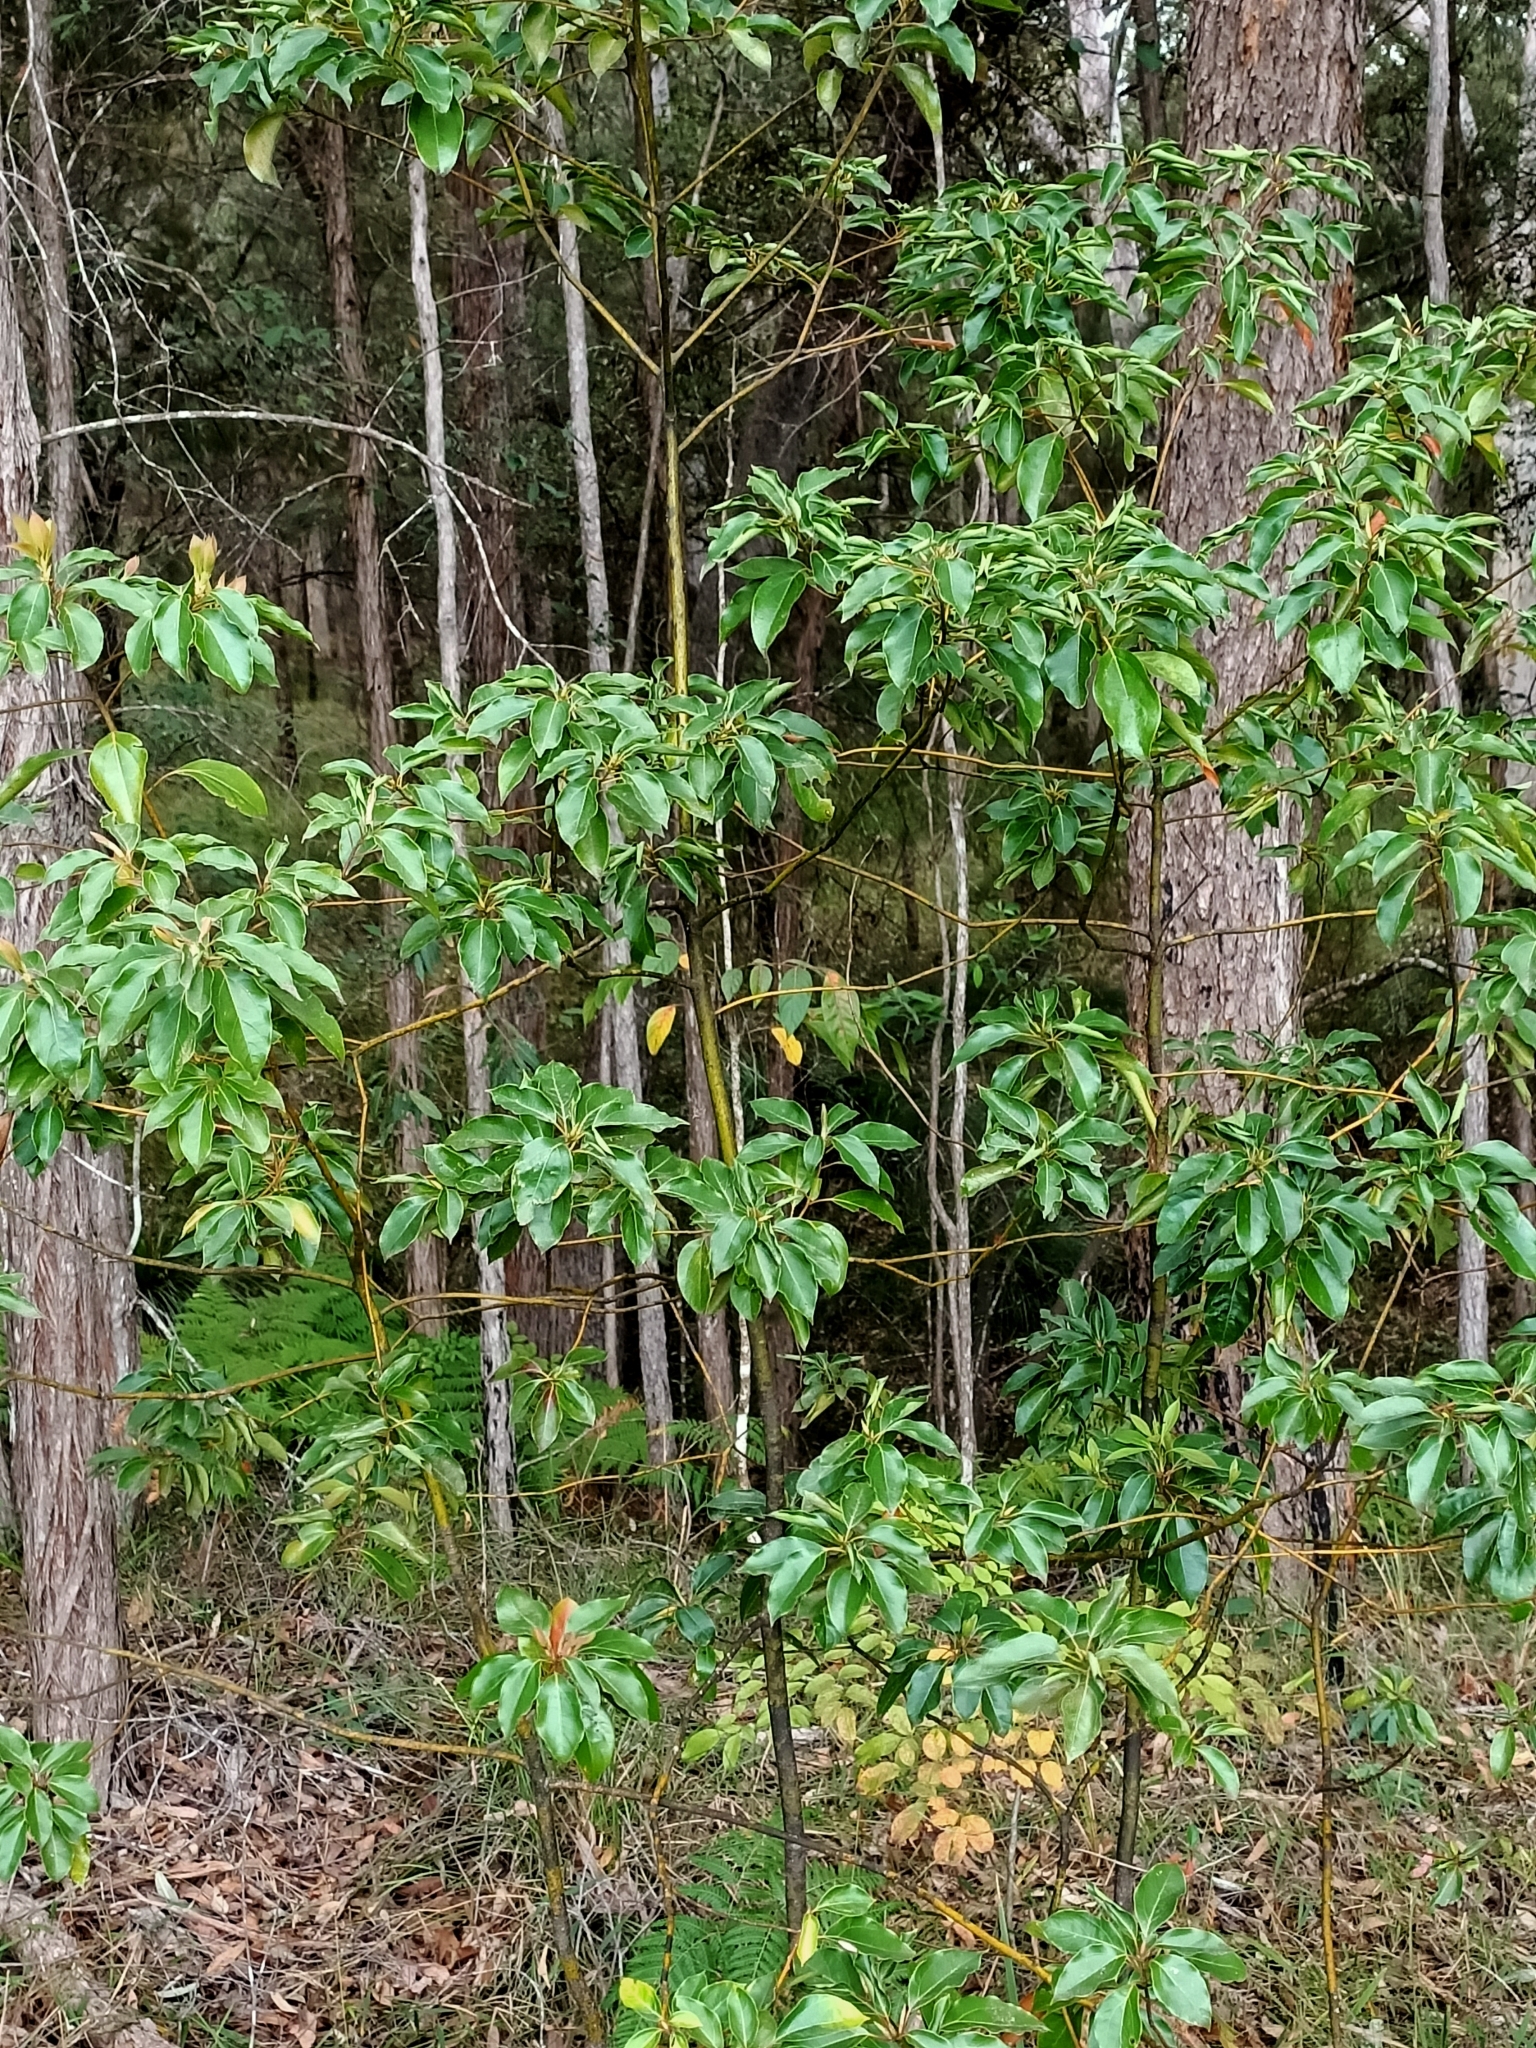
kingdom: Plantae
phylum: Tracheophyta
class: Magnoliopsida
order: Laurales
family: Lauraceae
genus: Cinnamomum
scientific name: Cinnamomum camphora
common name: Camphortree
